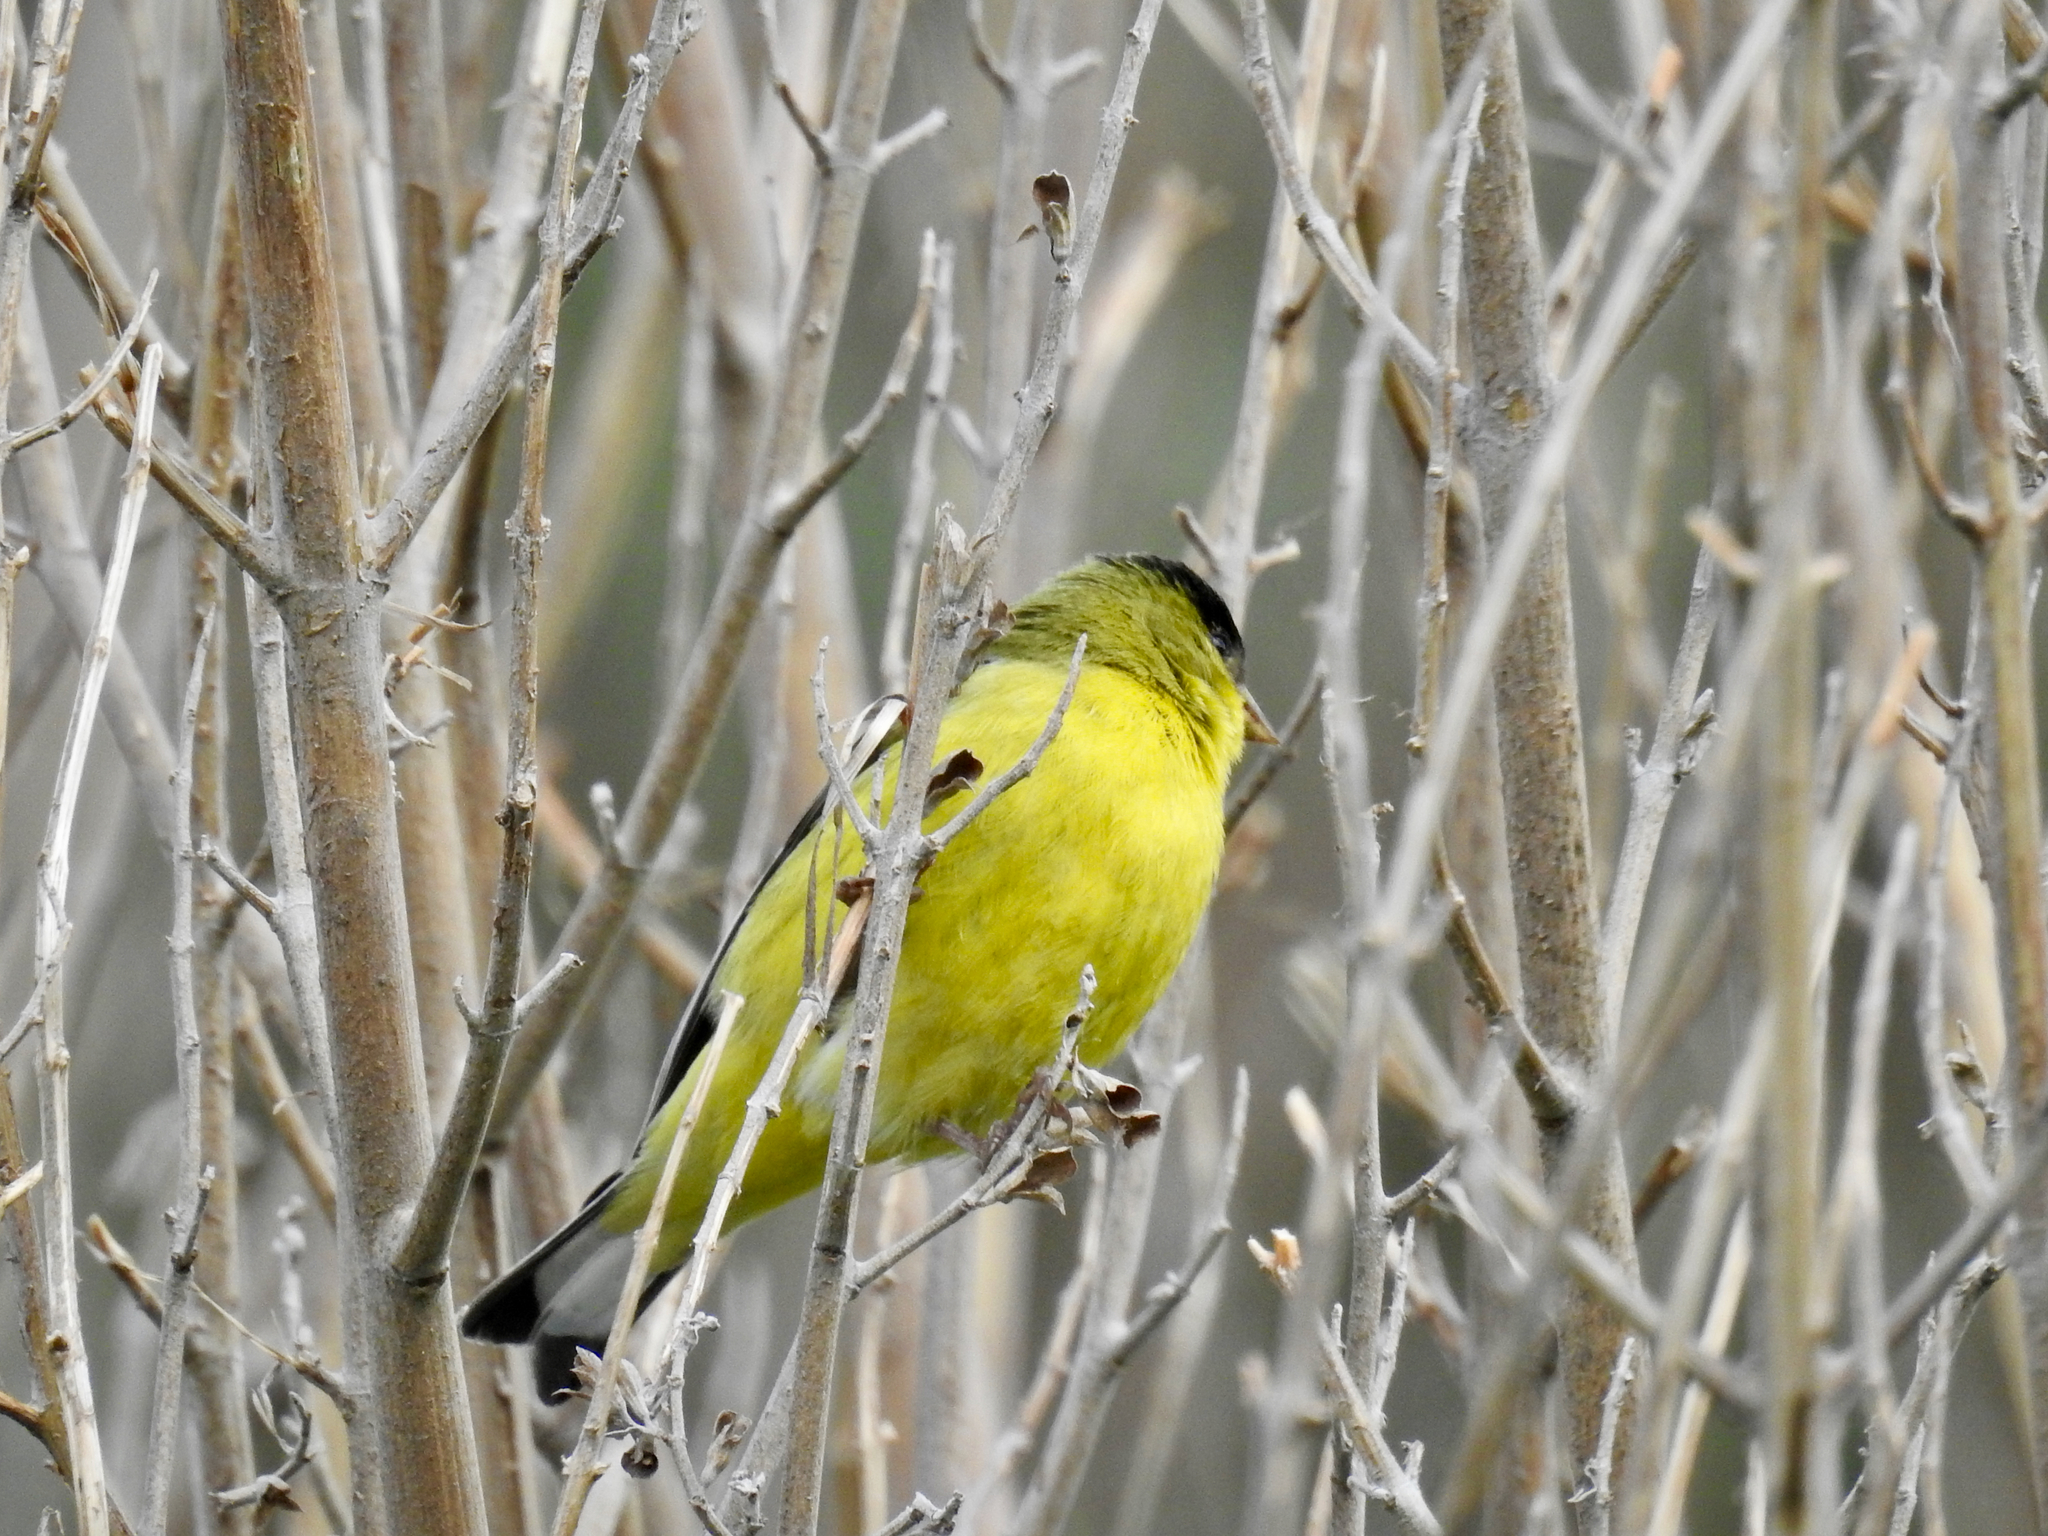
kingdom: Animalia
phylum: Chordata
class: Aves
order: Passeriformes
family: Fringillidae
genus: Spinus
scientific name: Spinus psaltria
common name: Lesser goldfinch
